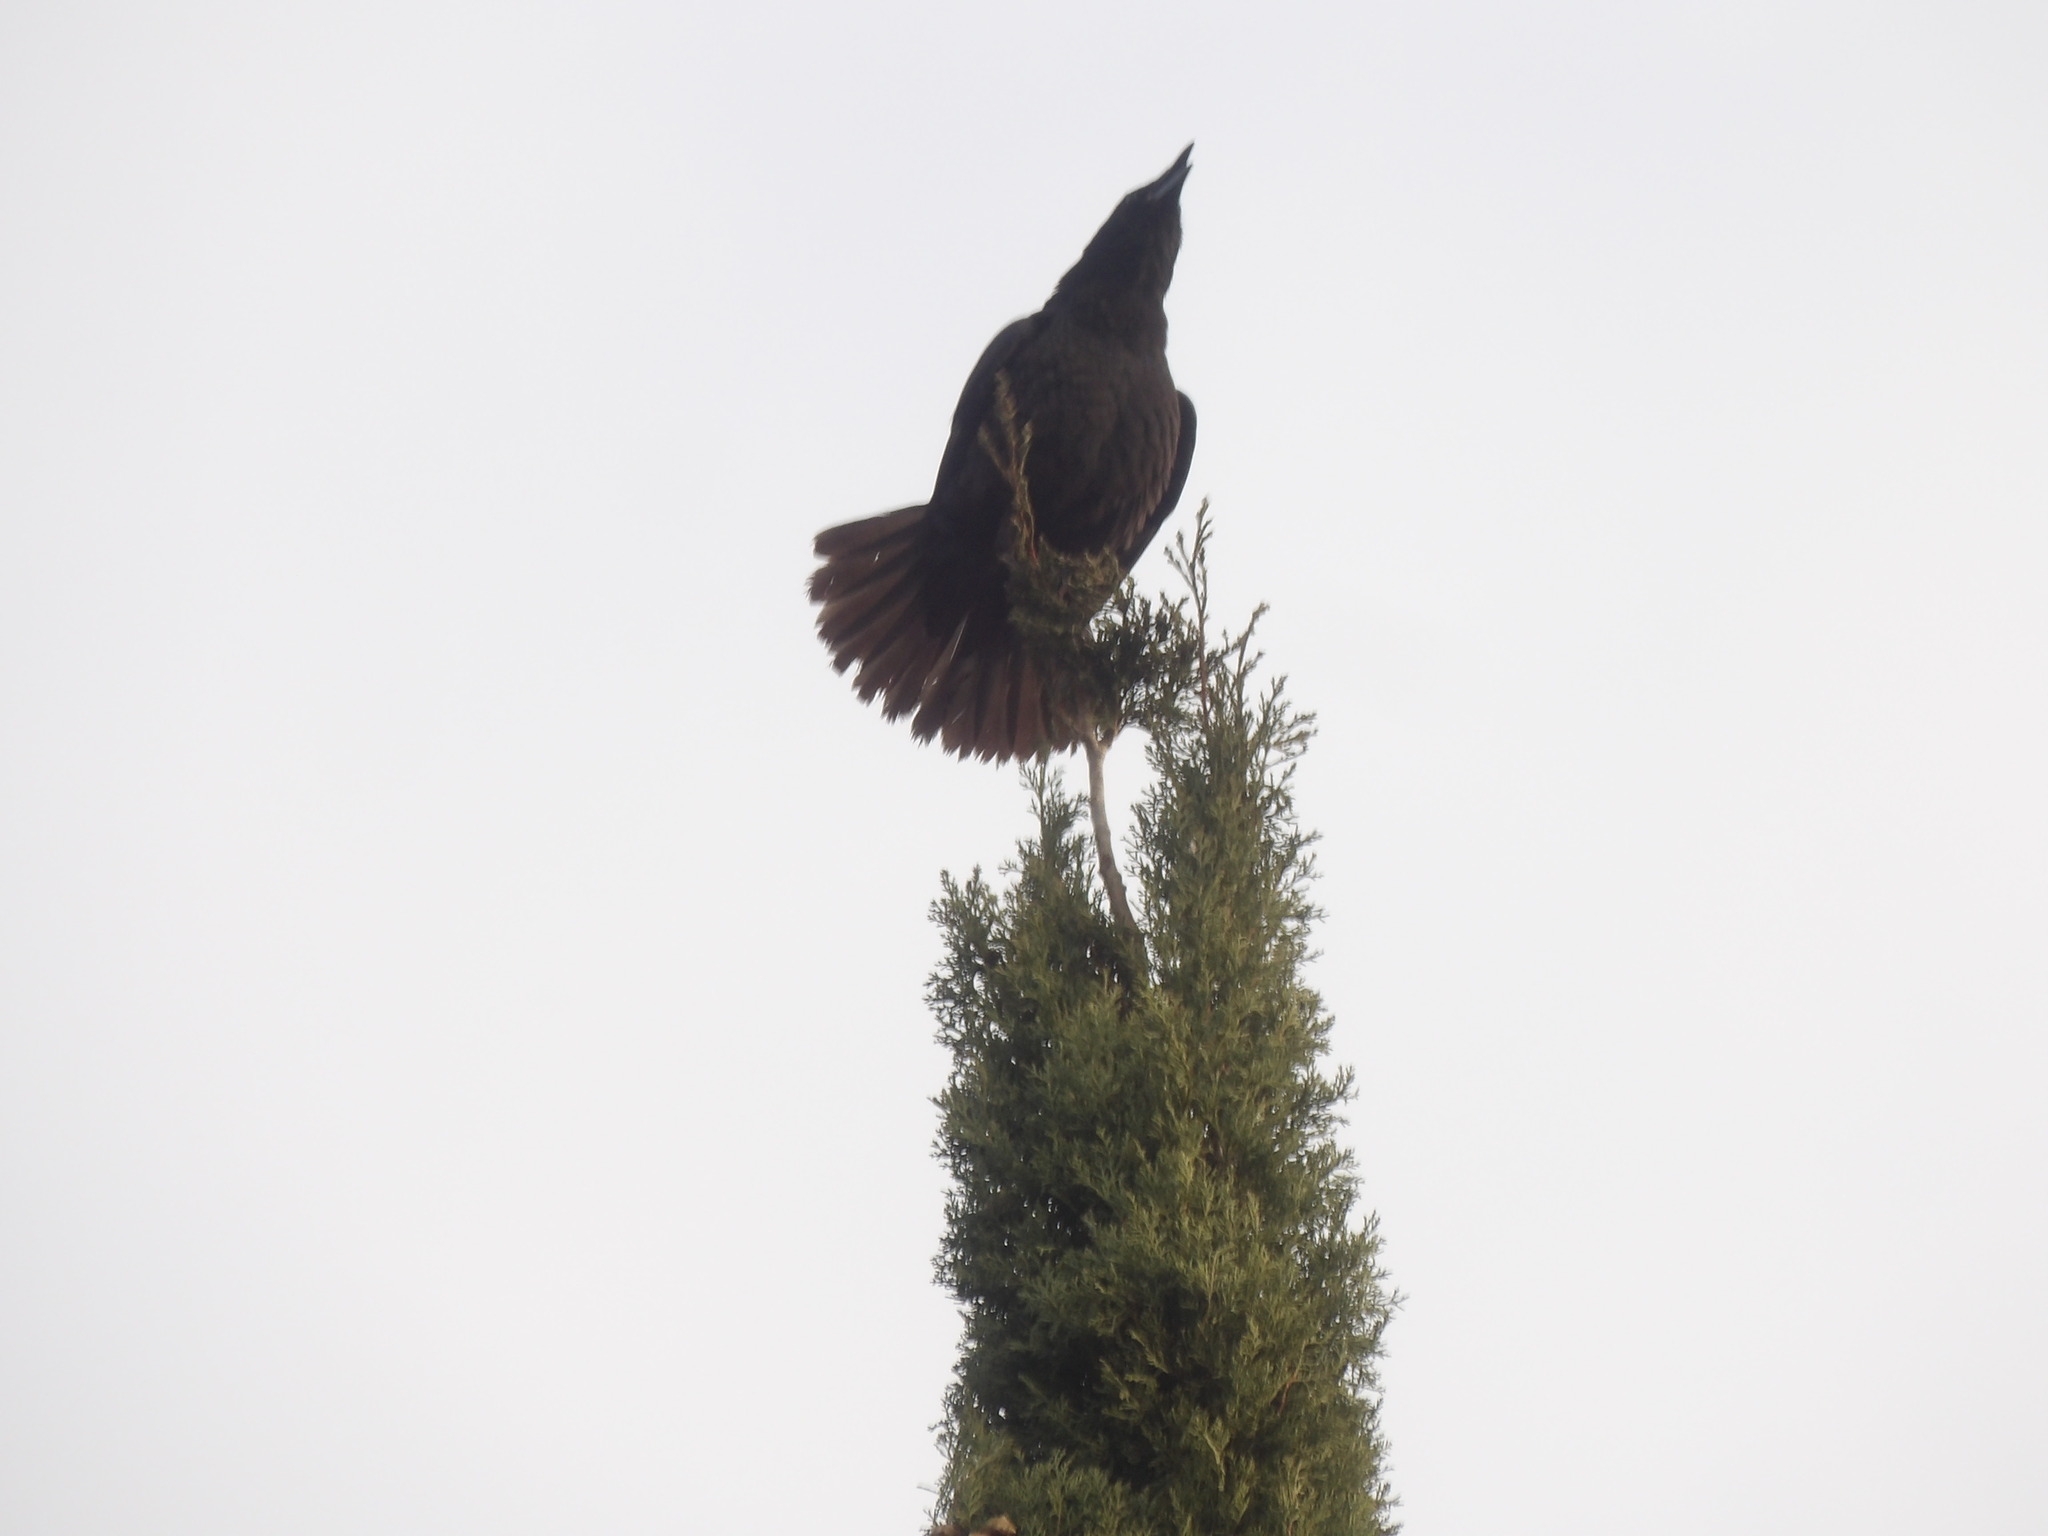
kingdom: Animalia
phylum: Chordata
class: Aves
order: Passeriformes
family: Corvidae
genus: Corvus
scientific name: Corvus brachyrhynchos
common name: American crow
